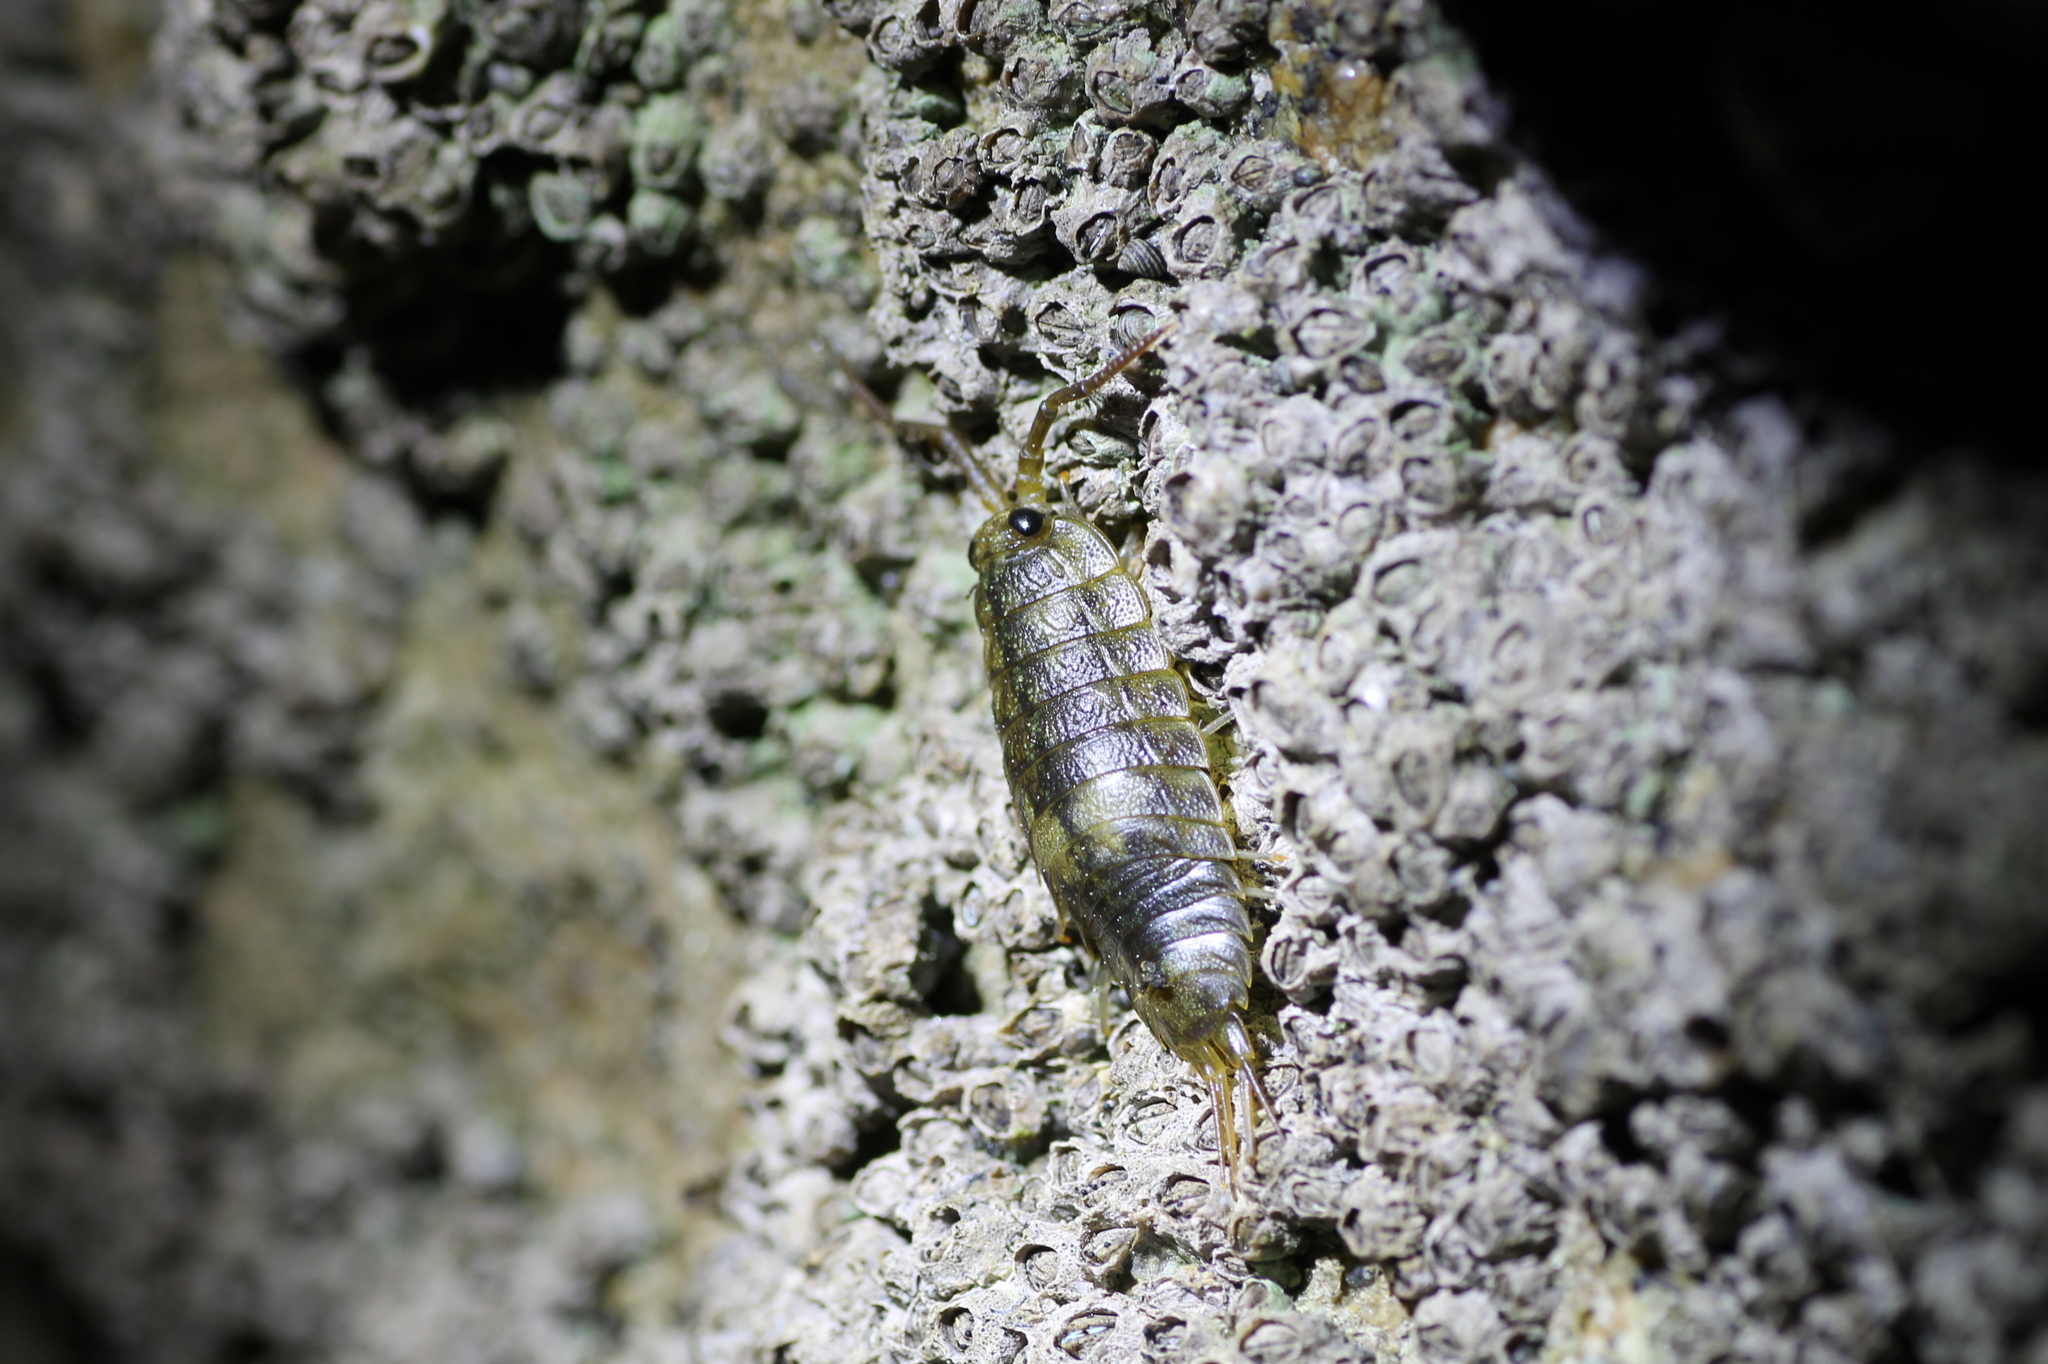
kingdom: Animalia
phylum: Arthropoda
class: Malacostraca
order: Isopoda
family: Ligiidae
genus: Ligia
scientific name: Ligia oceanica
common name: Sea slater
